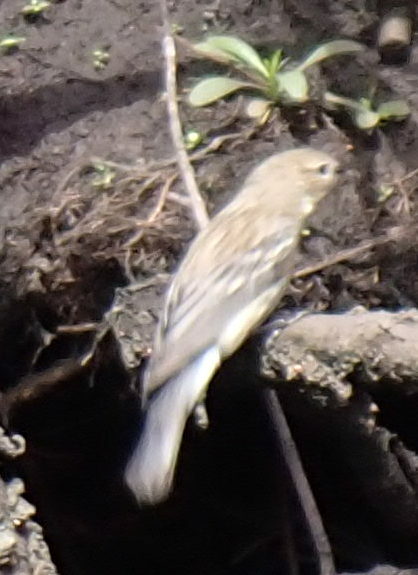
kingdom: Animalia
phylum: Chordata
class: Aves
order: Passeriformes
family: Parulidae
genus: Setophaga
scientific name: Setophaga coronata
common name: Myrtle warbler
